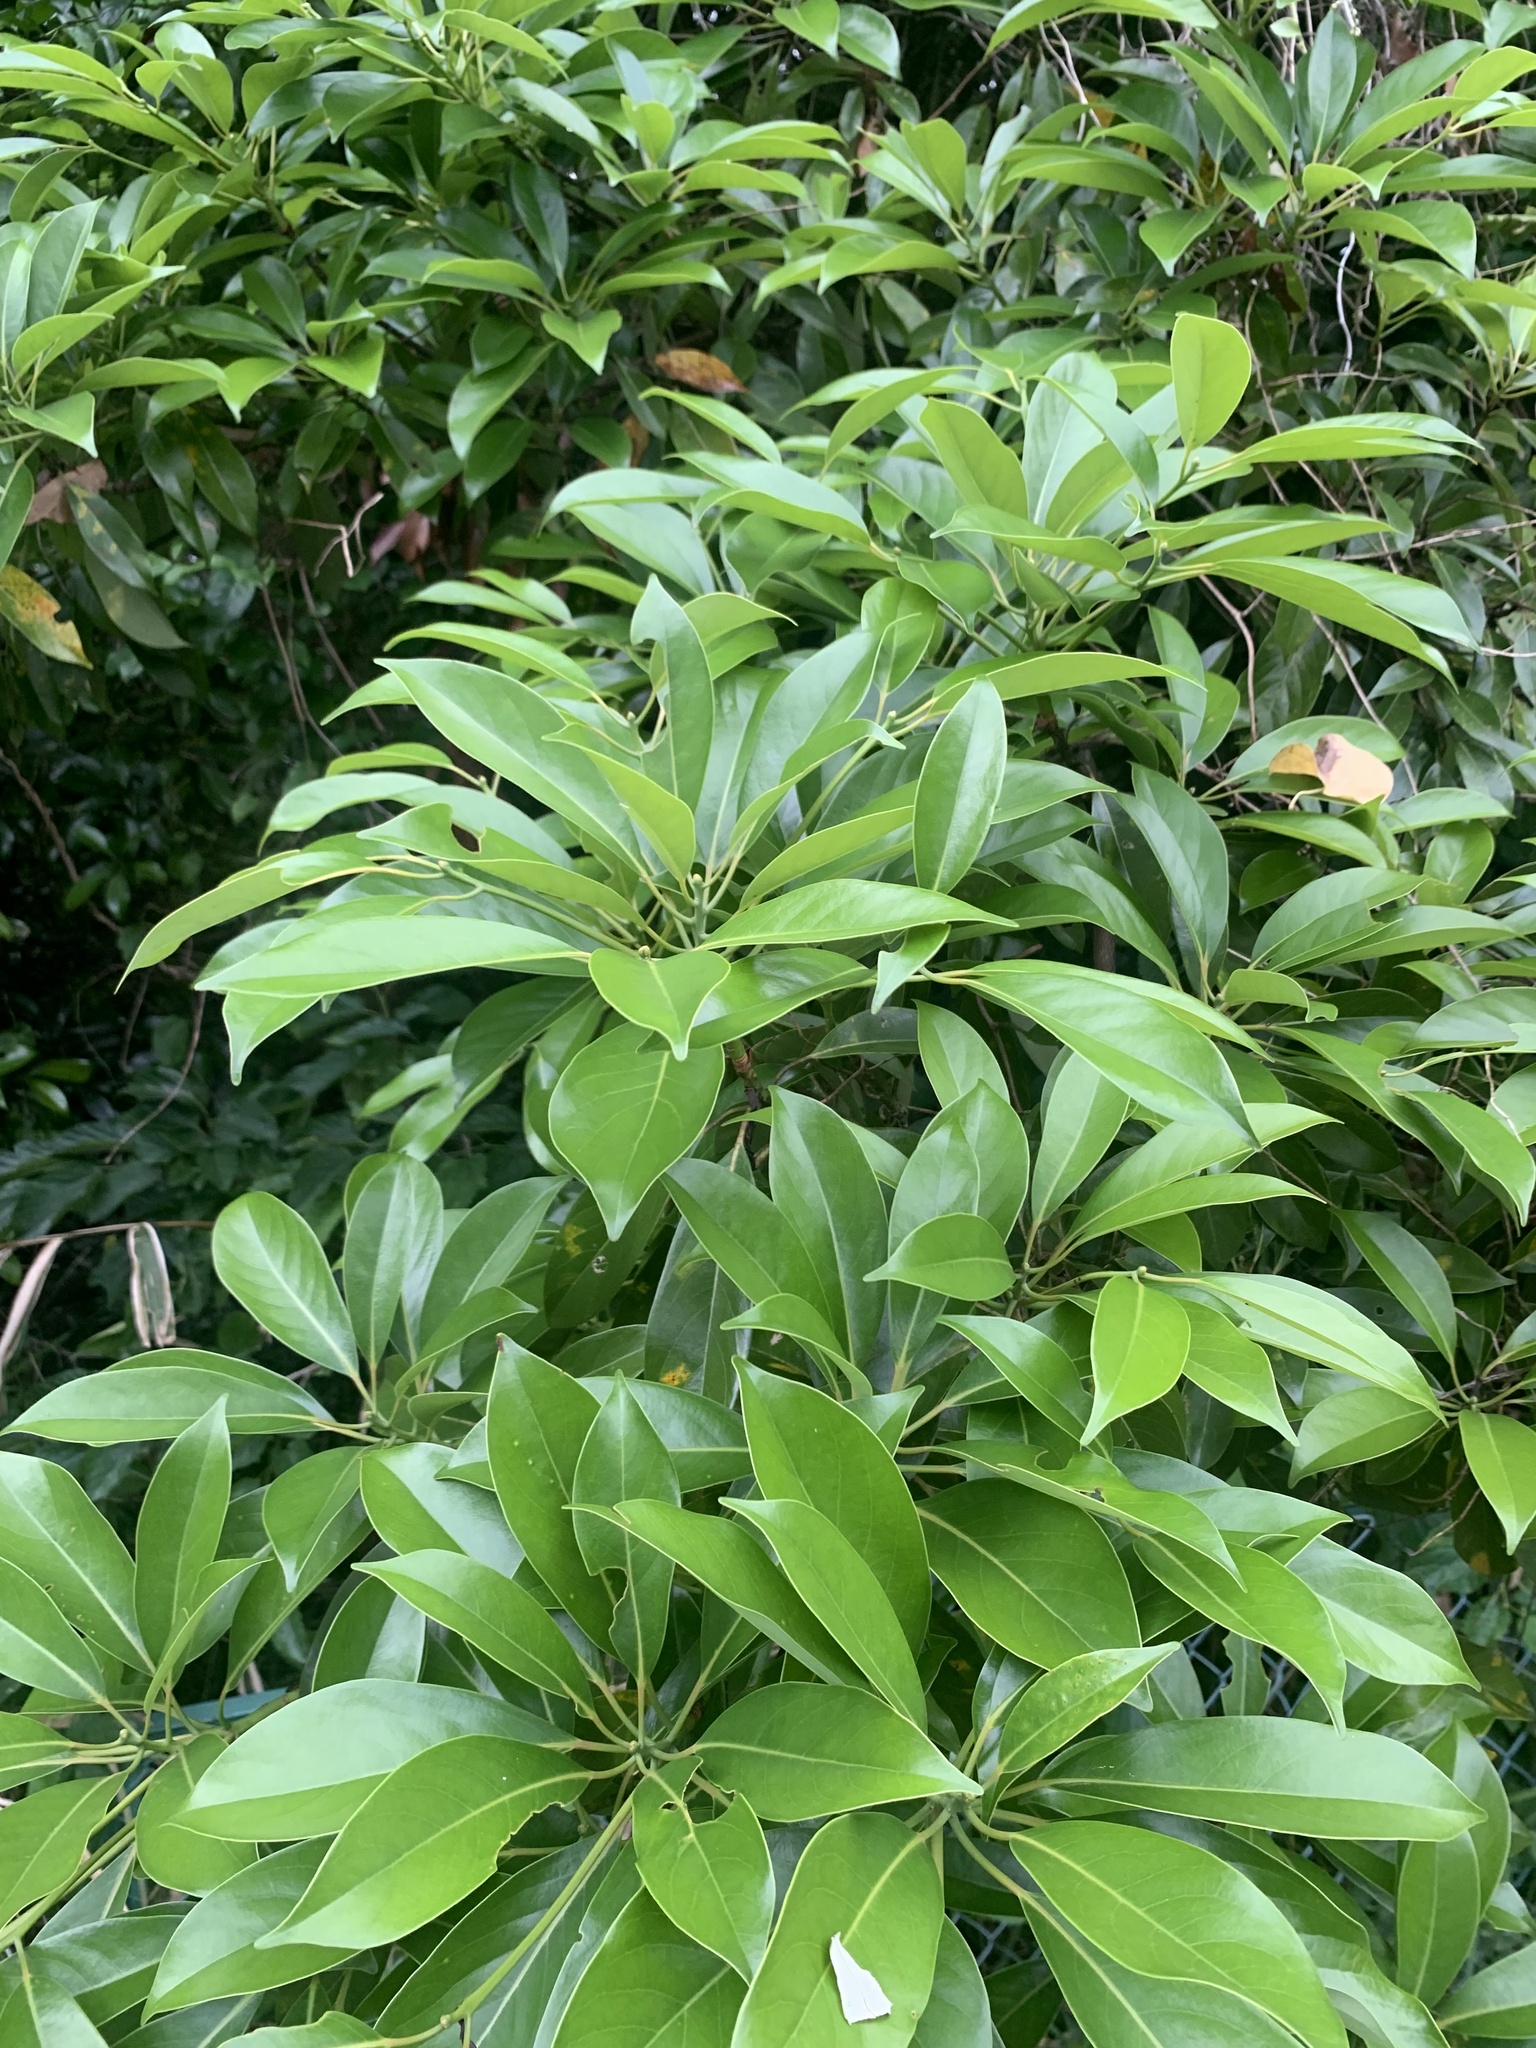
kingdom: Plantae
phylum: Tracheophyta
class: Magnoliopsida
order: Laurales
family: Lauraceae
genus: Machilus
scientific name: Machilus thunbergii
